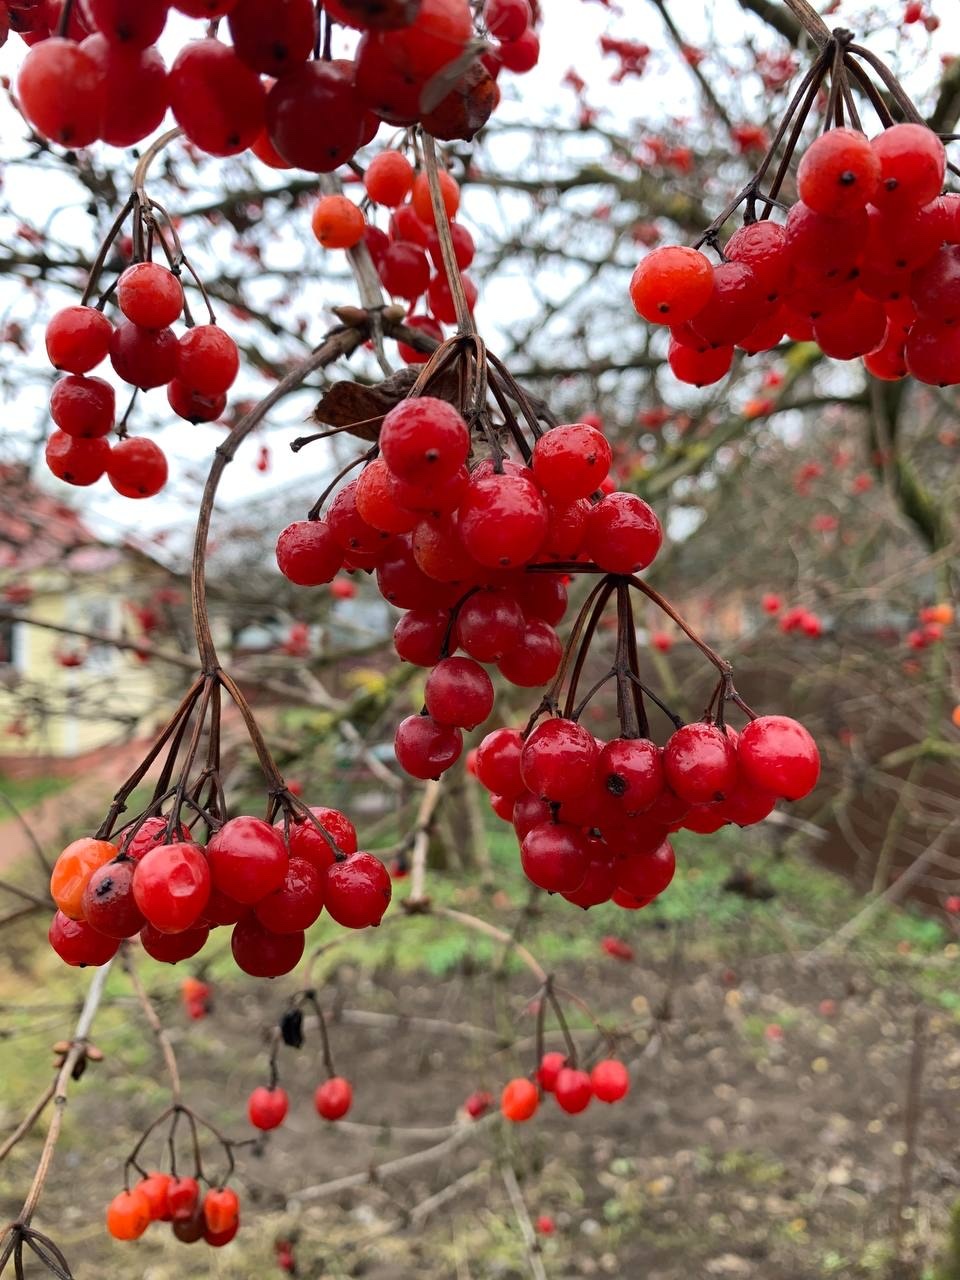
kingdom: Plantae
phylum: Tracheophyta
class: Magnoliopsida
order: Dipsacales
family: Viburnaceae
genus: Viburnum
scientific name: Viburnum opulus
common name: Guelder-rose
